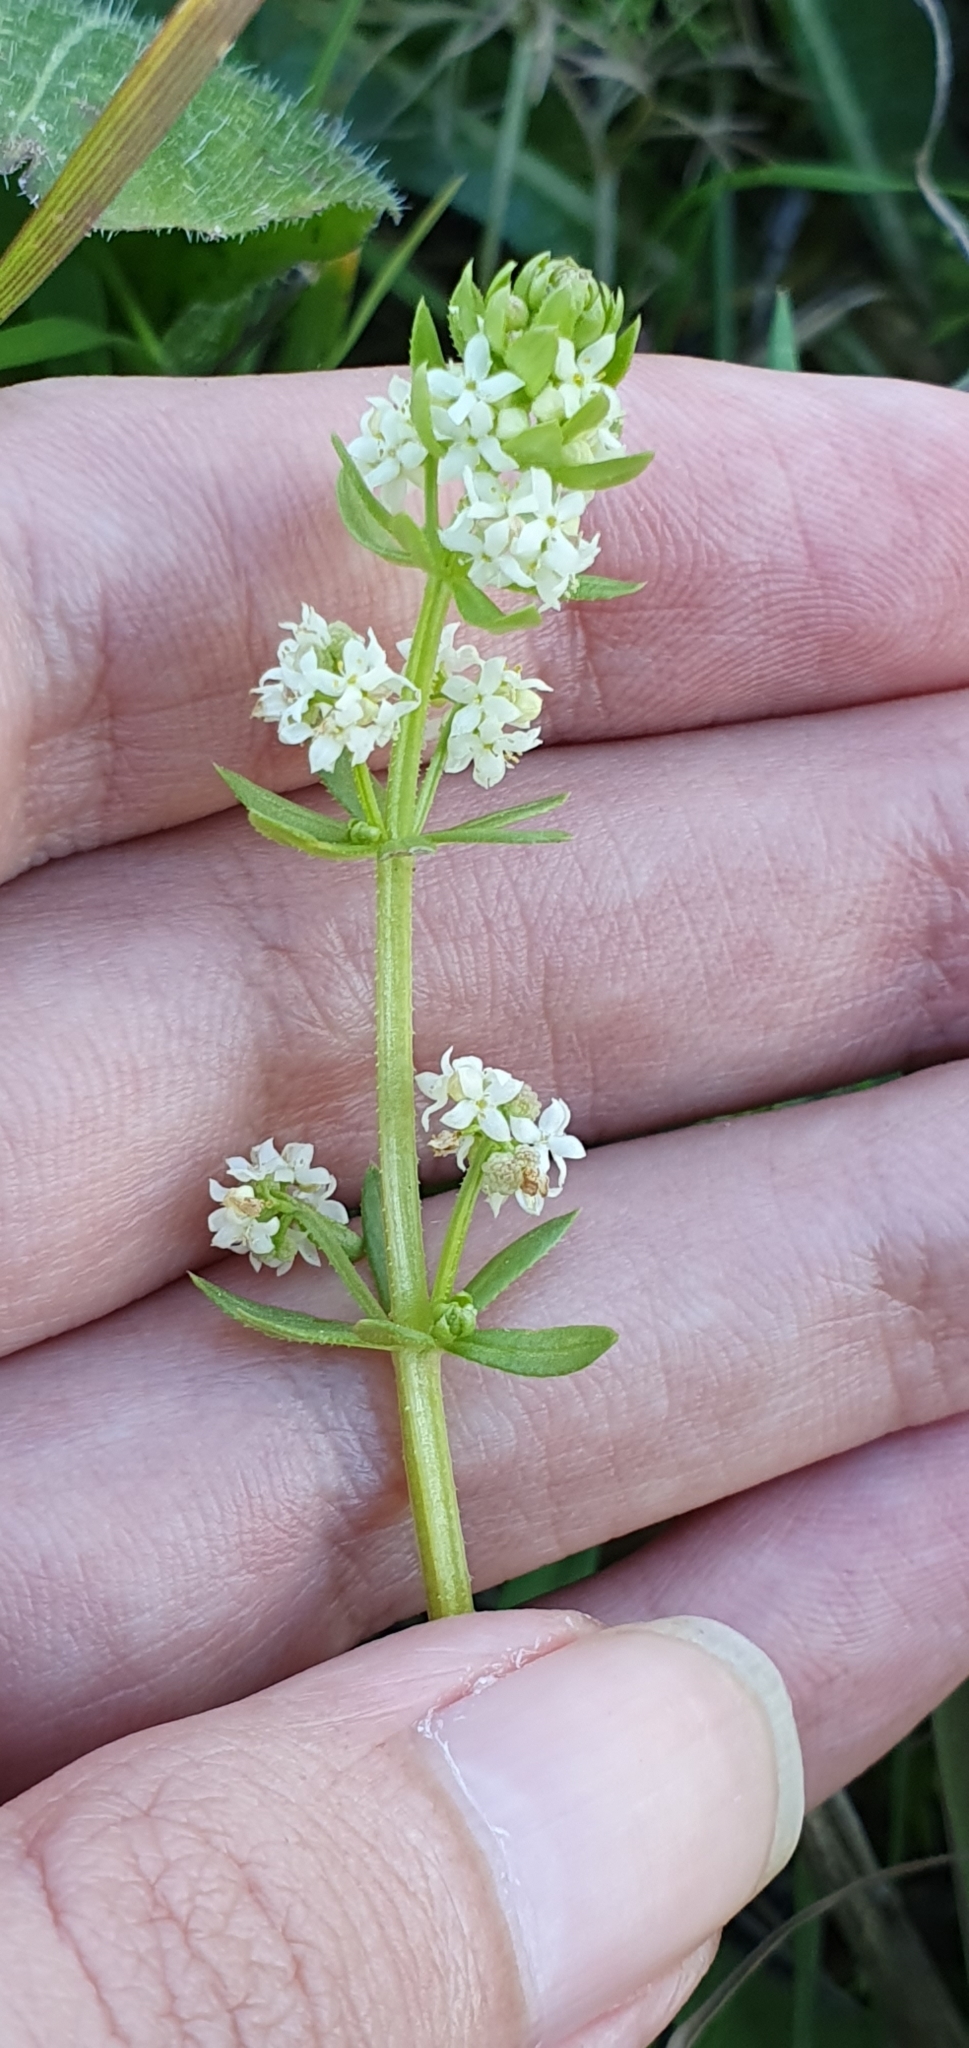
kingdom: Plantae
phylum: Tracheophyta
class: Magnoliopsida
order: Gentianales
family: Rubiaceae
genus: Galium
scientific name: Galium verrucosum
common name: Warty bedstraw
